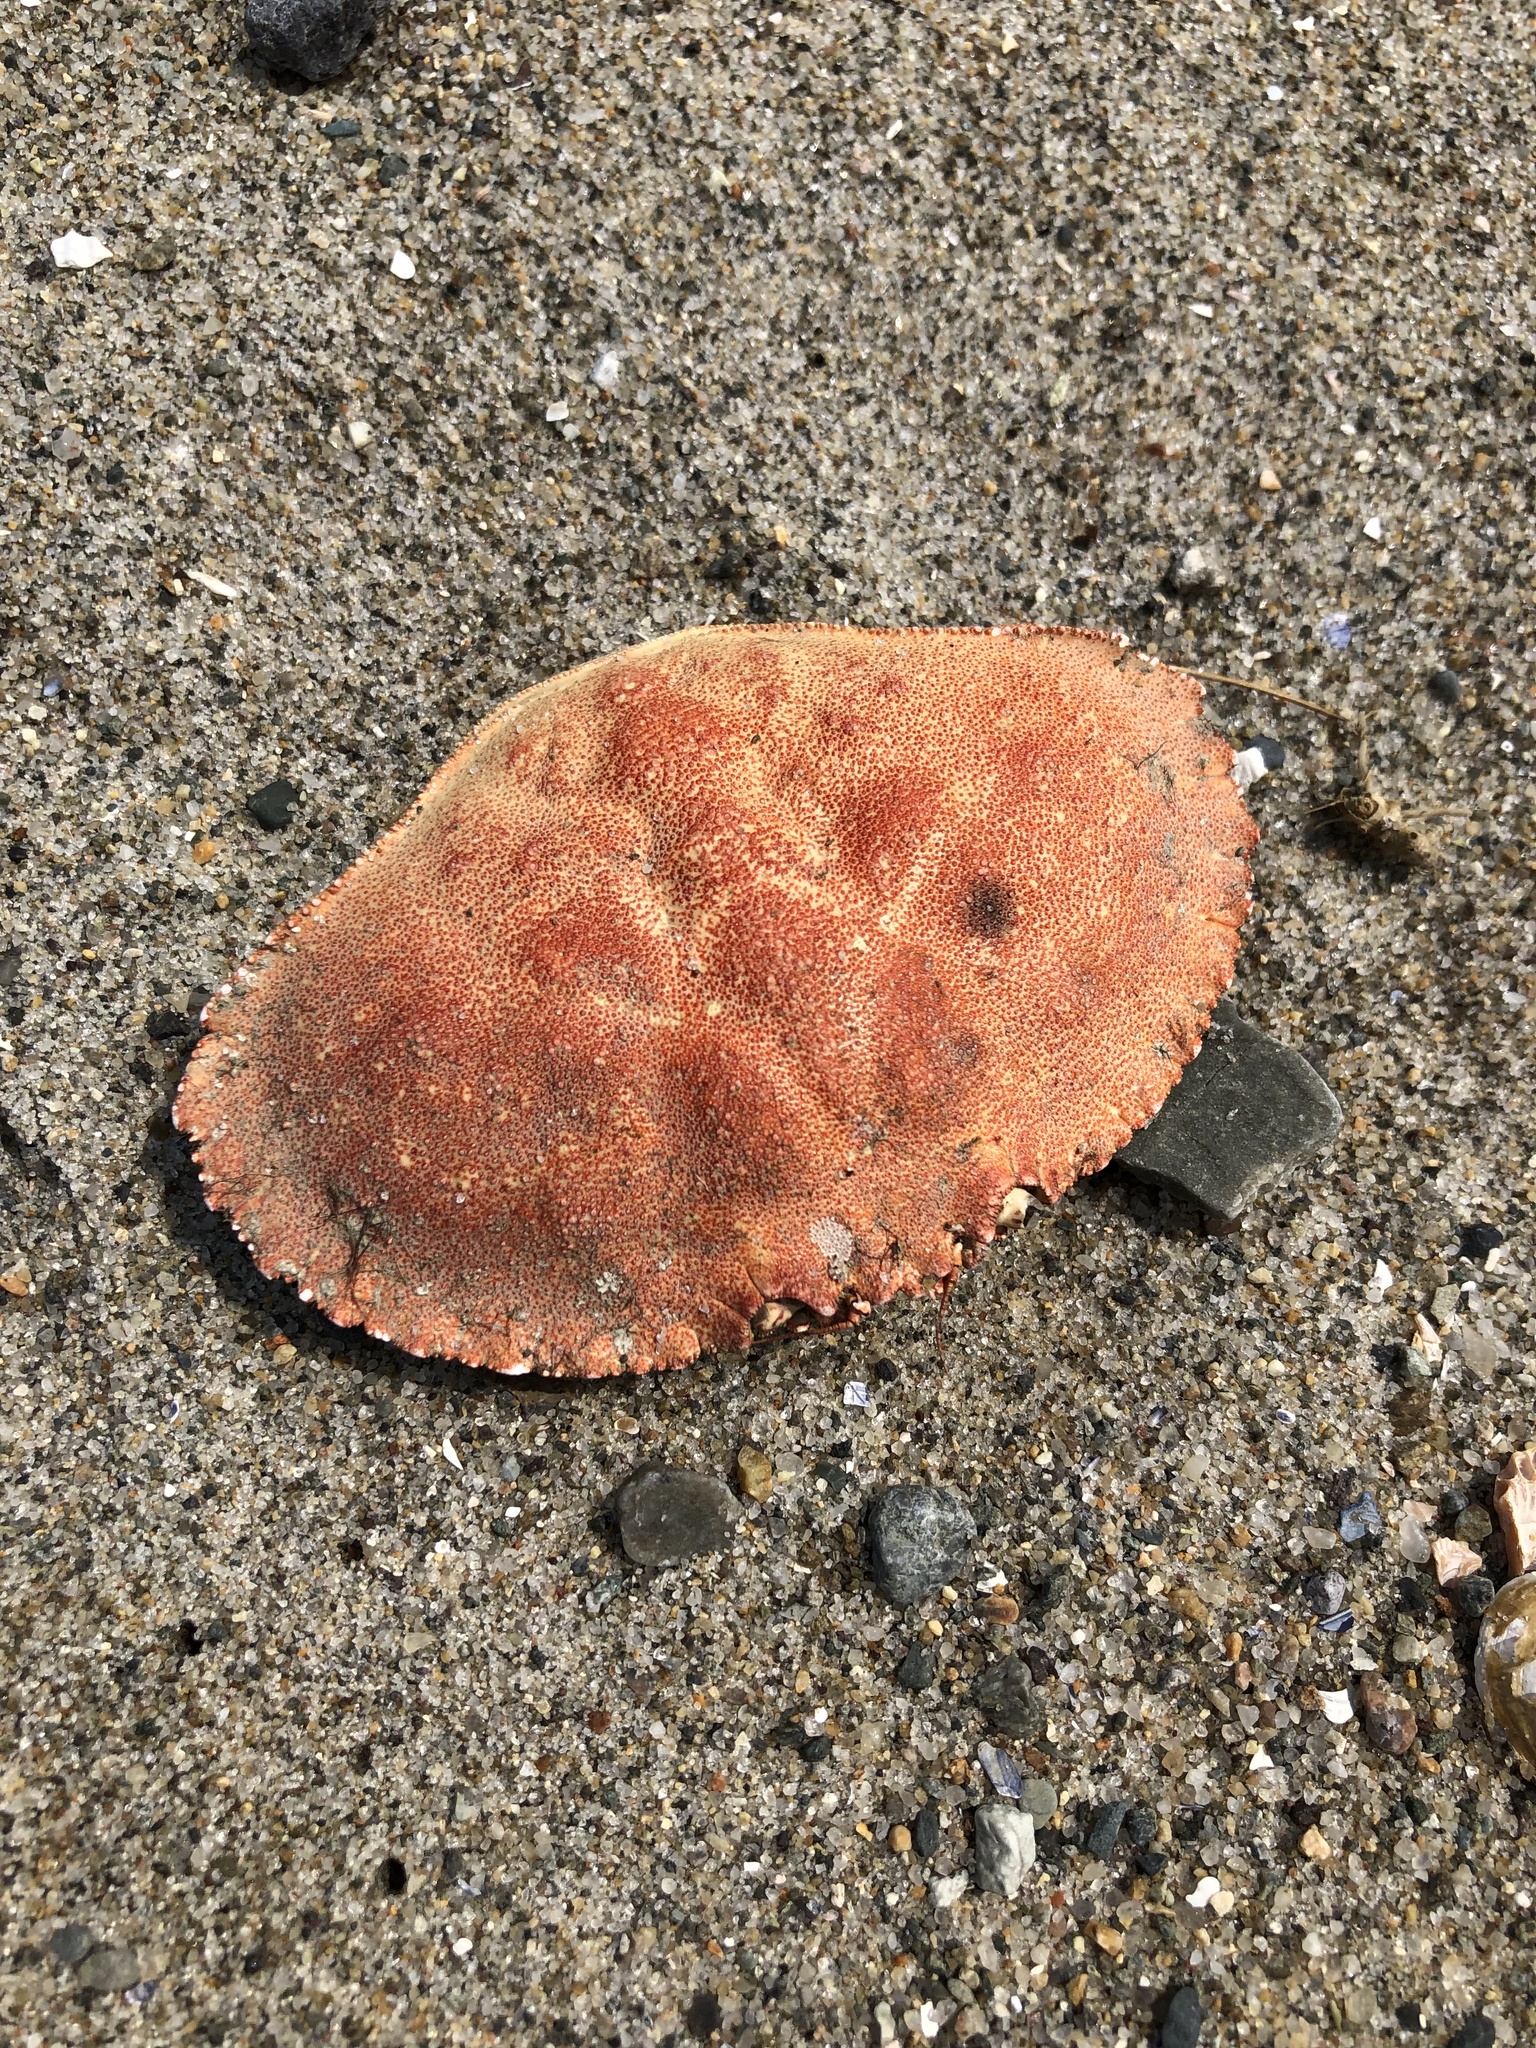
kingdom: Animalia
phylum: Arthropoda
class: Malacostraca
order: Decapoda
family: Cancridae
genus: Cancer
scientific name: Cancer borealis
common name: Jonah crab
